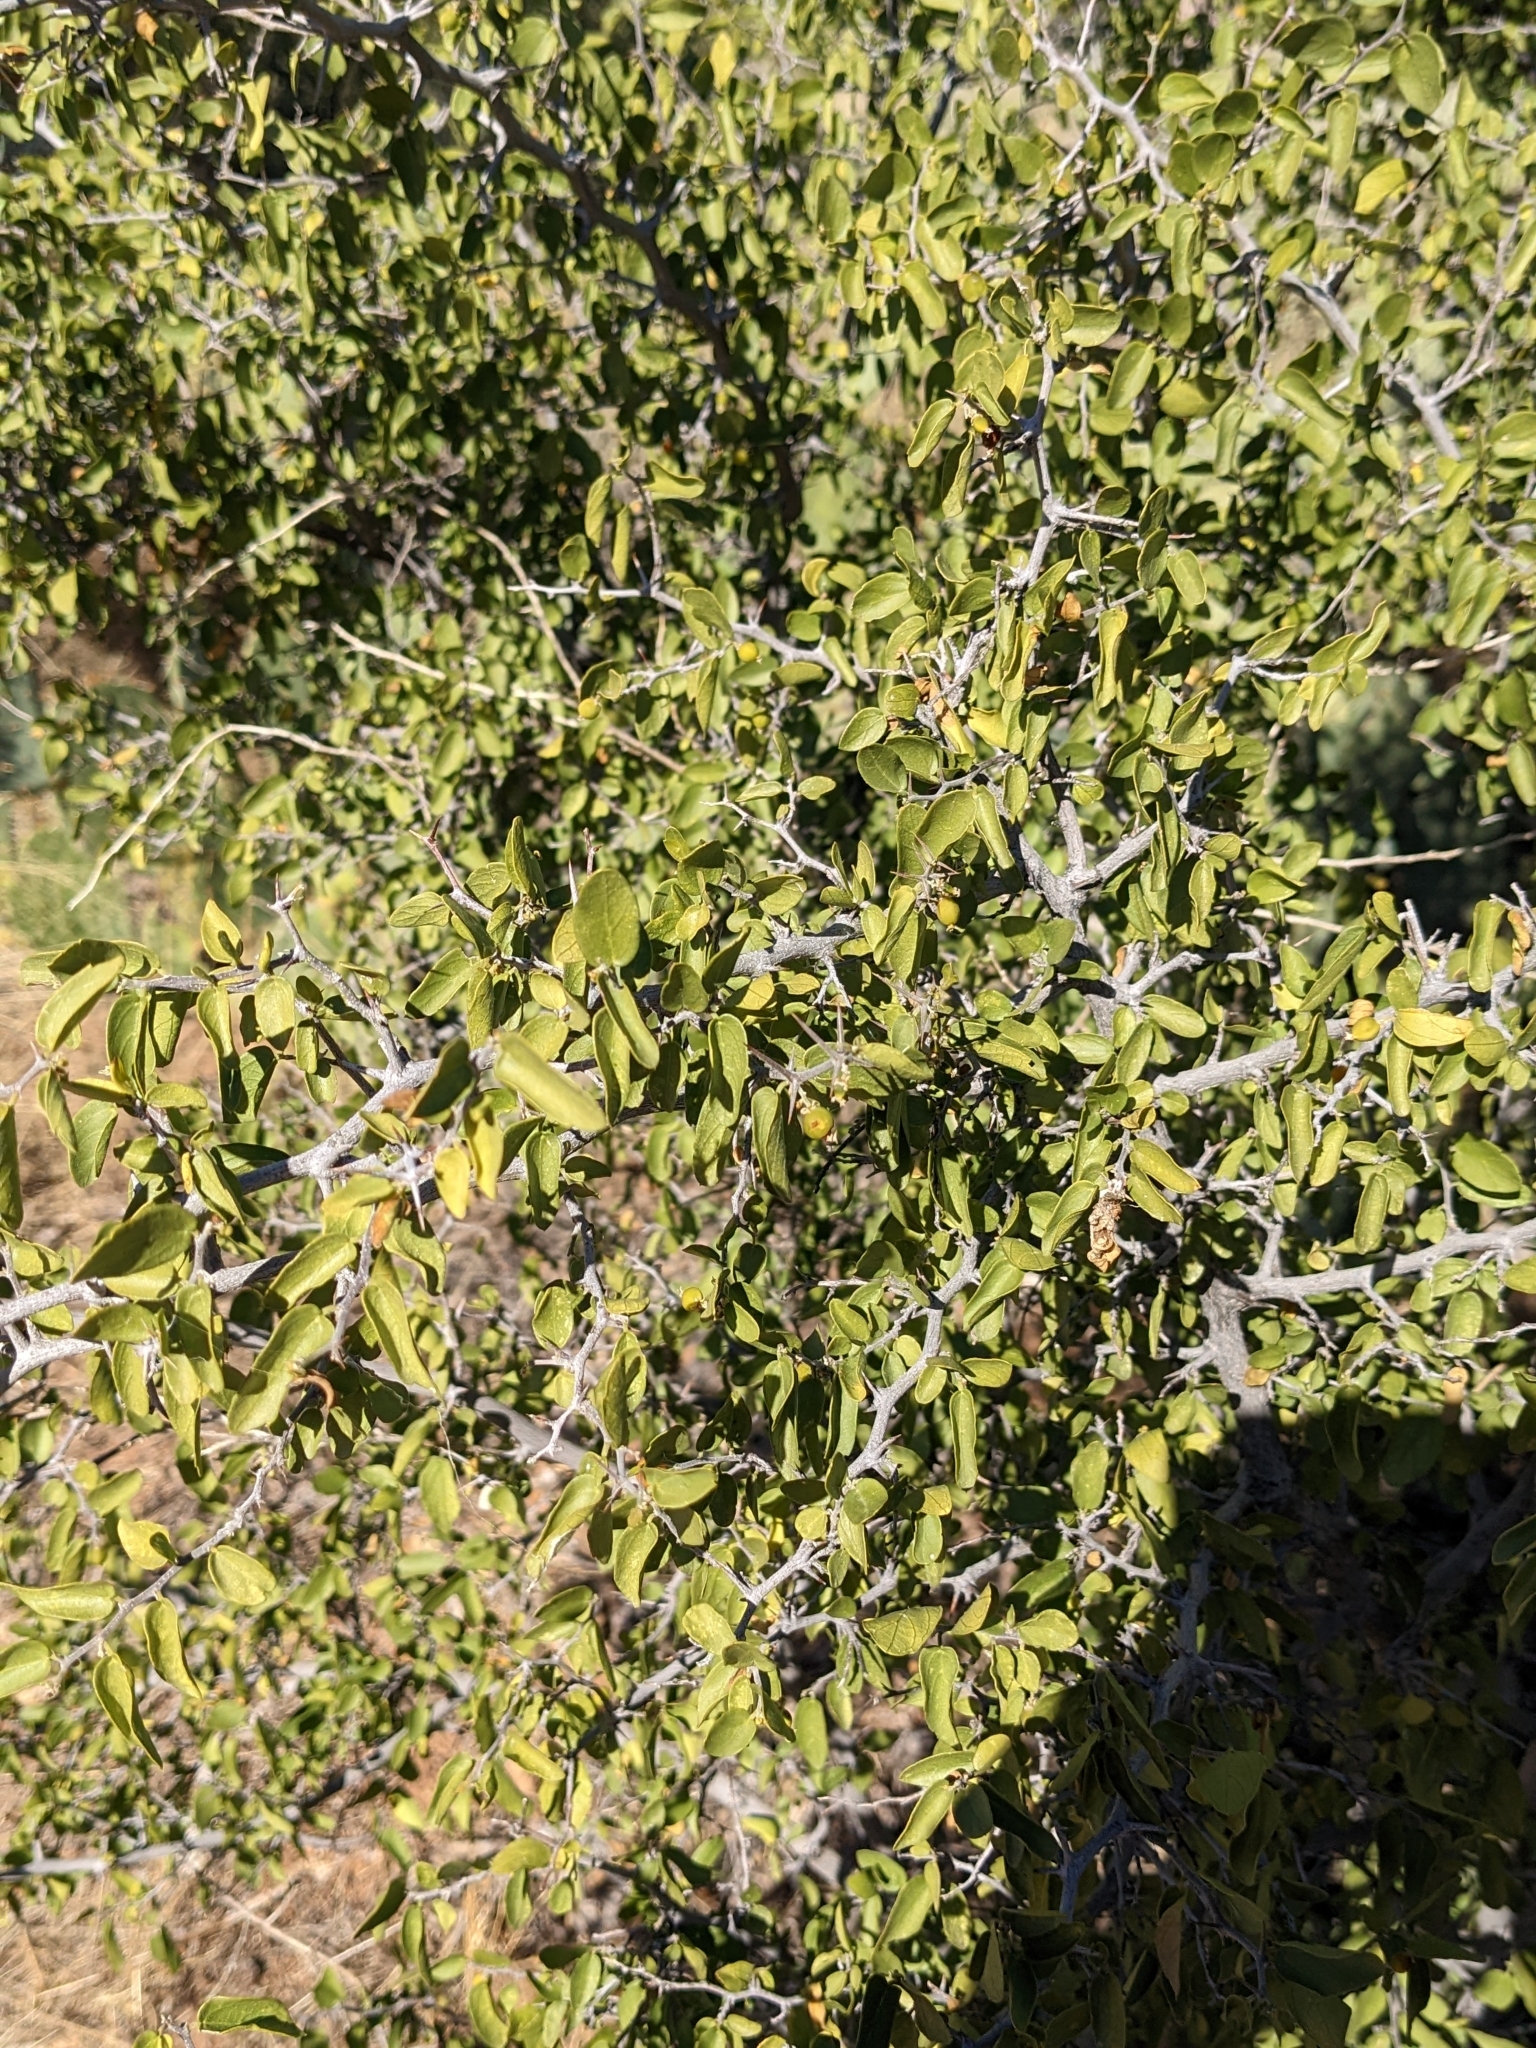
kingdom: Plantae
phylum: Tracheophyta
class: Magnoliopsida
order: Rosales
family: Cannabaceae
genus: Celtis
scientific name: Celtis pallida
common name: Desert hackberry
